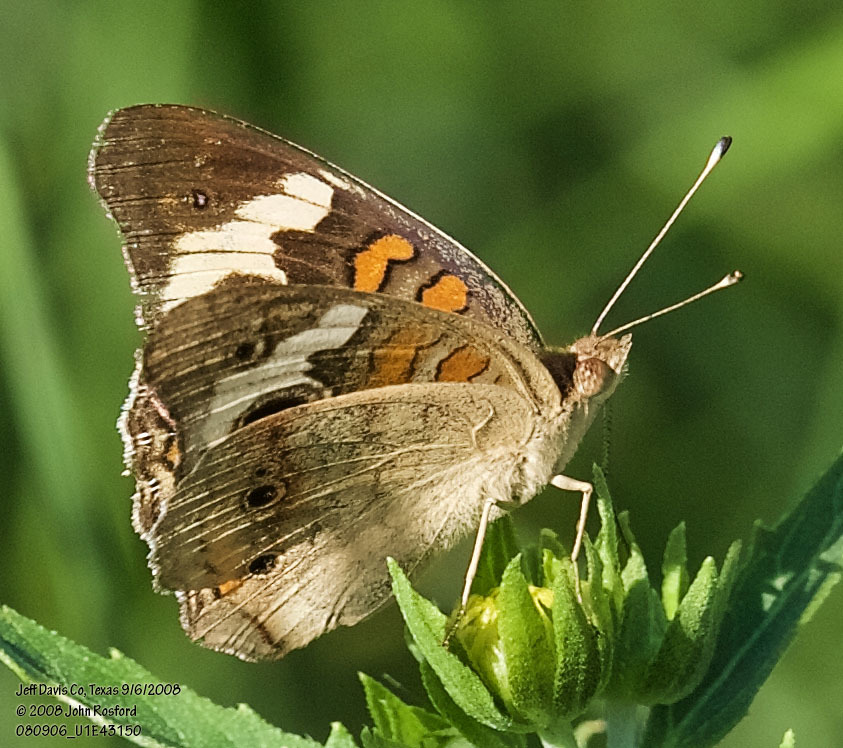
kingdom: Animalia
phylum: Arthropoda
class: Insecta
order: Lepidoptera
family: Nymphalidae
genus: Junonia
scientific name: Junonia coenia
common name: Common buckeye
